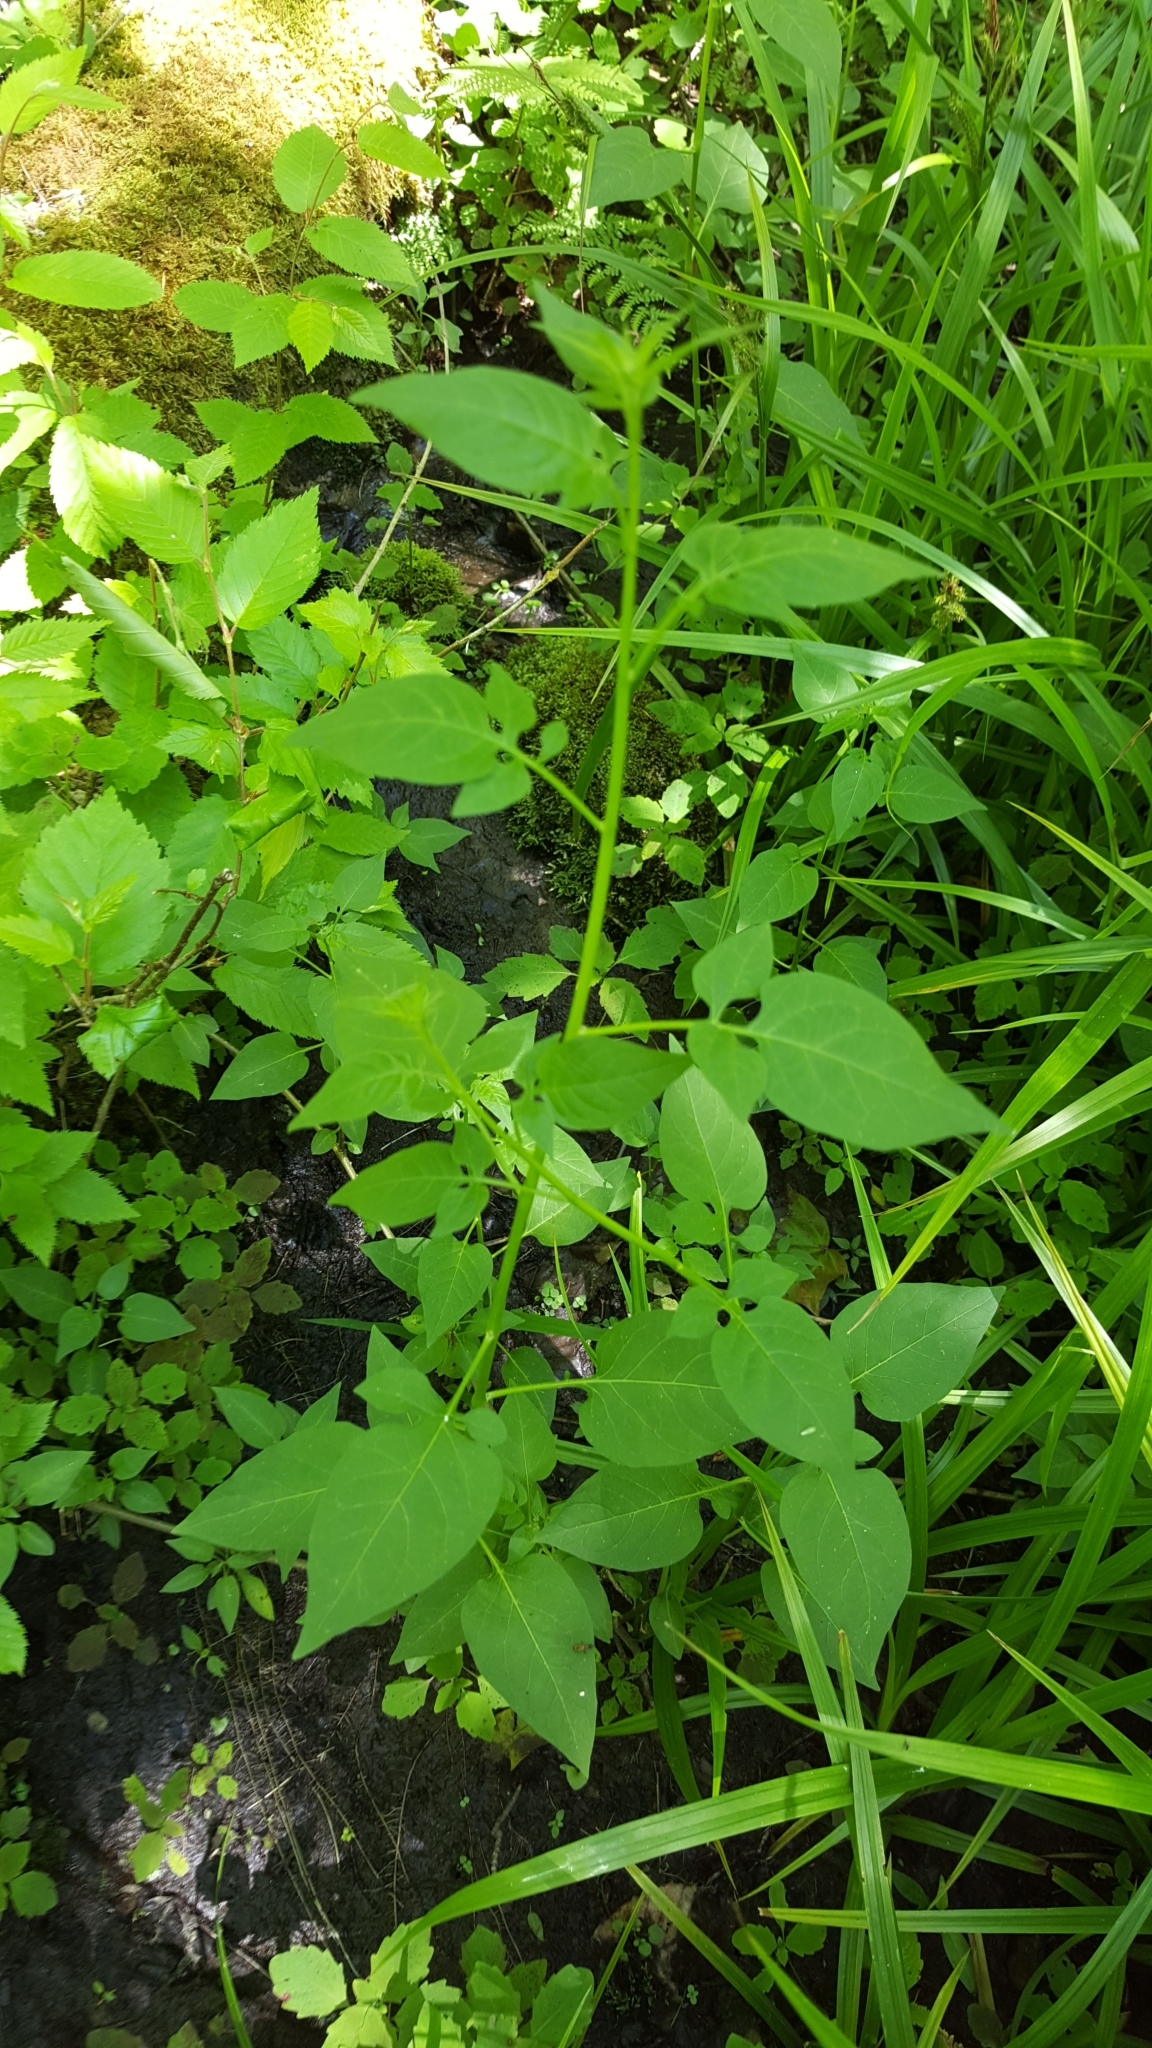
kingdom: Plantae
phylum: Tracheophyta
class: Magnoliopsida
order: Solanales
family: Solanaceae
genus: Solanum
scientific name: Solanum dulcamara
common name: Climbing nightshade
